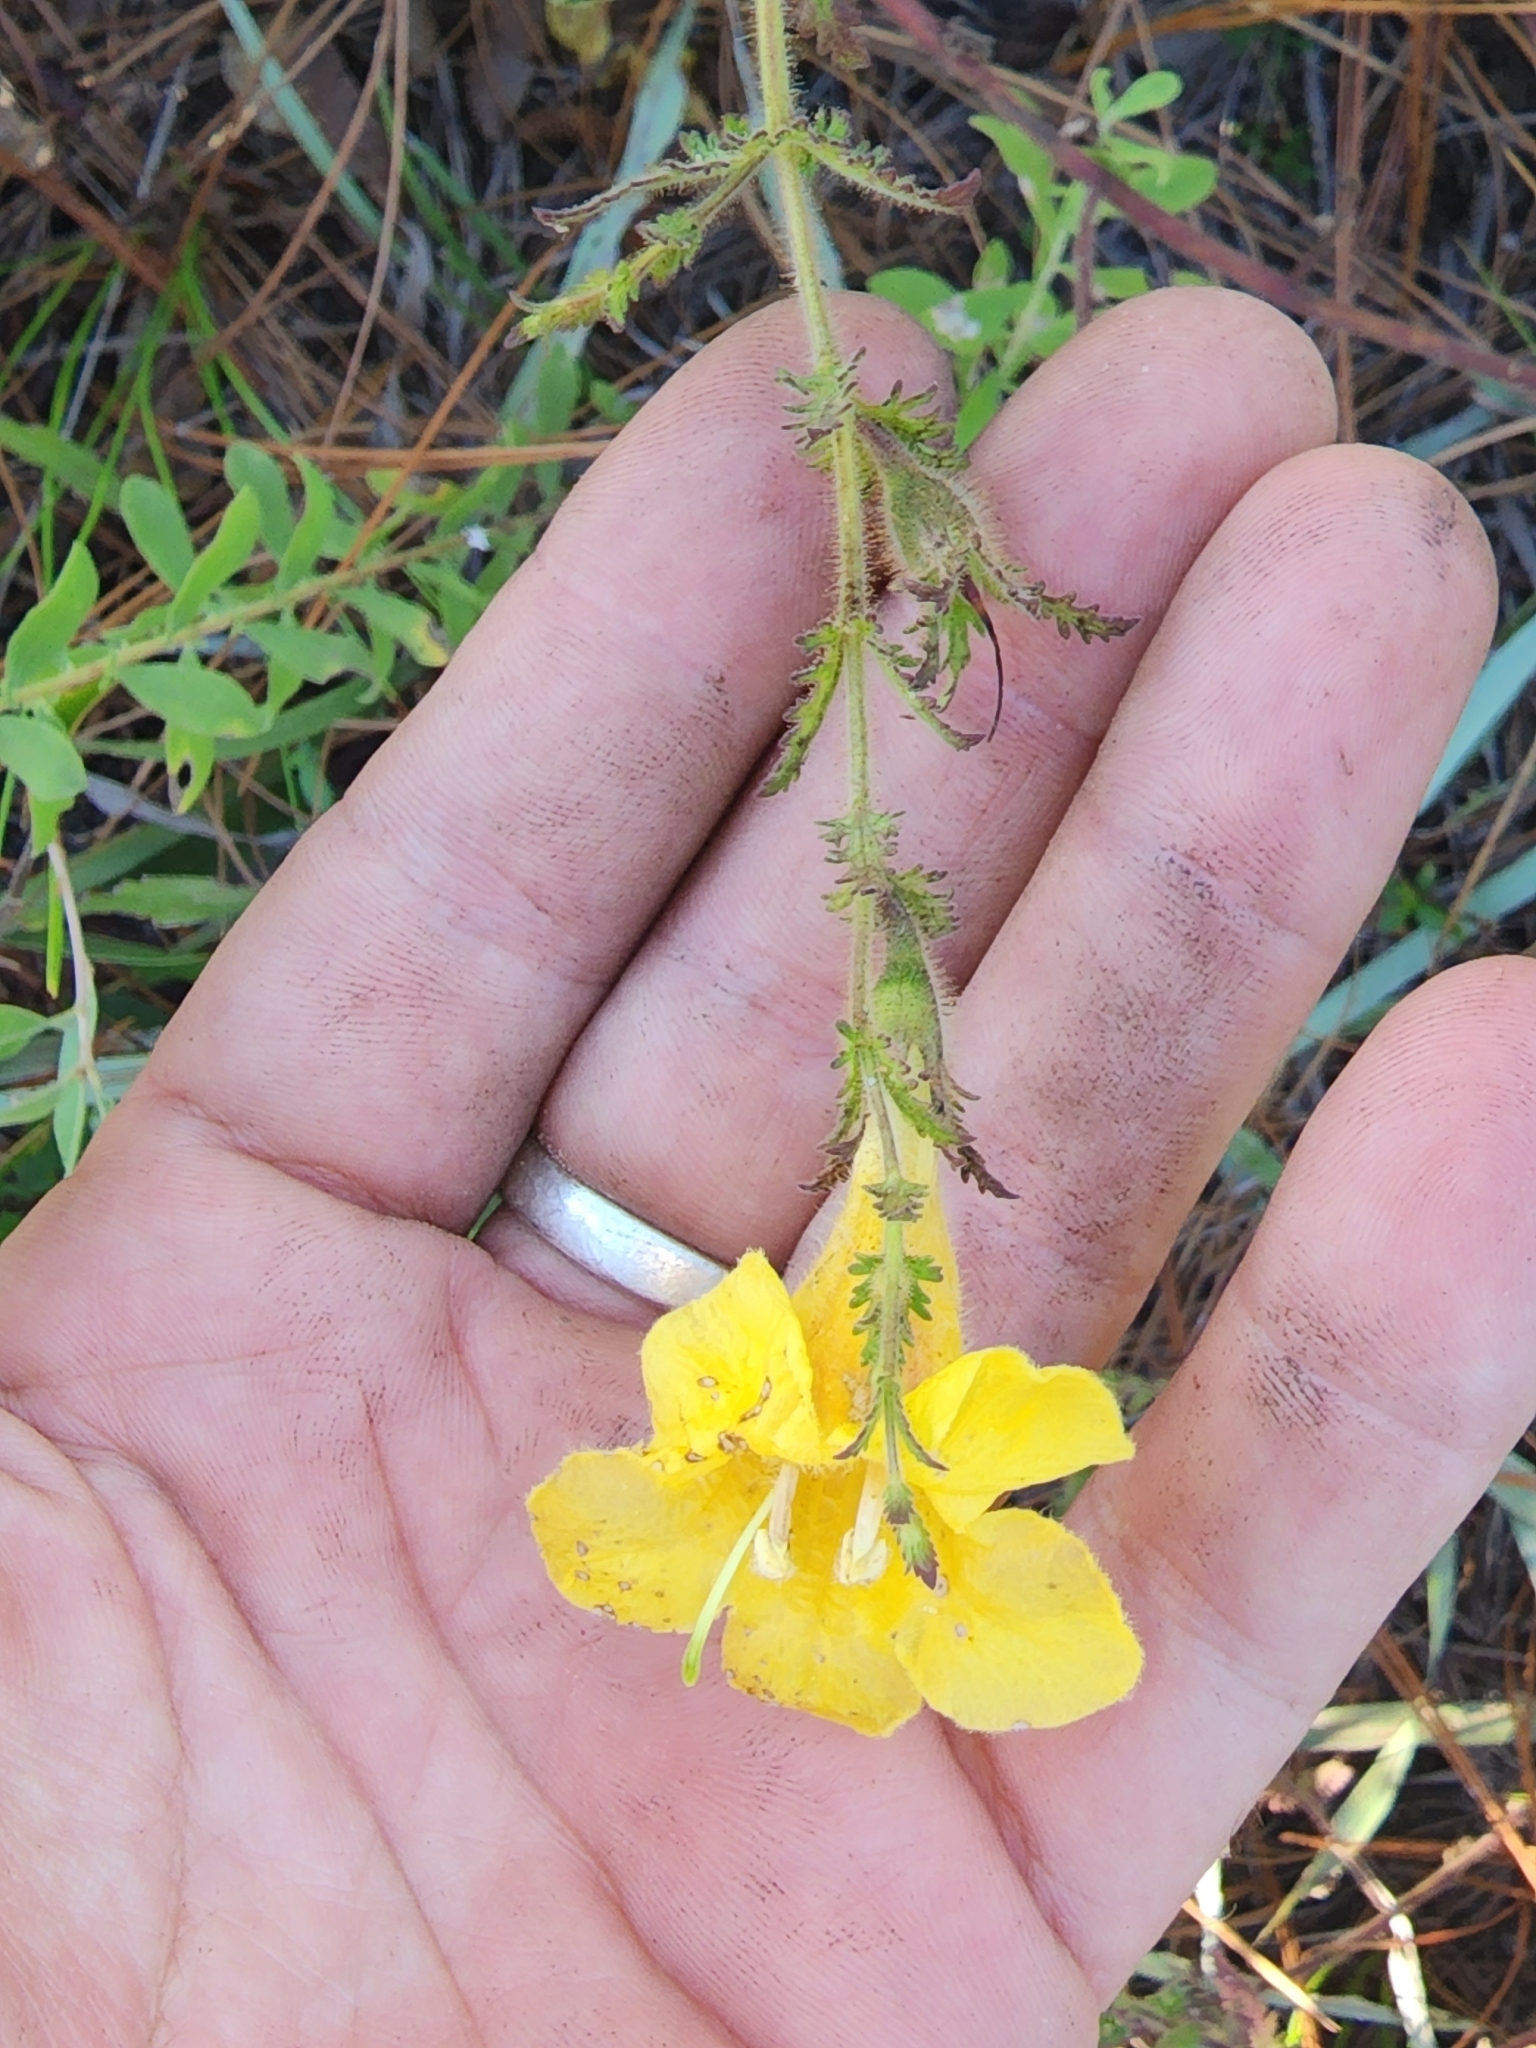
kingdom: Plantae
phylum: Tracheophyta
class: Magnoliopsida
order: Lamiales
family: Orobanchaceae
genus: Aureolaria
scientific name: Aureolaria pectinata
